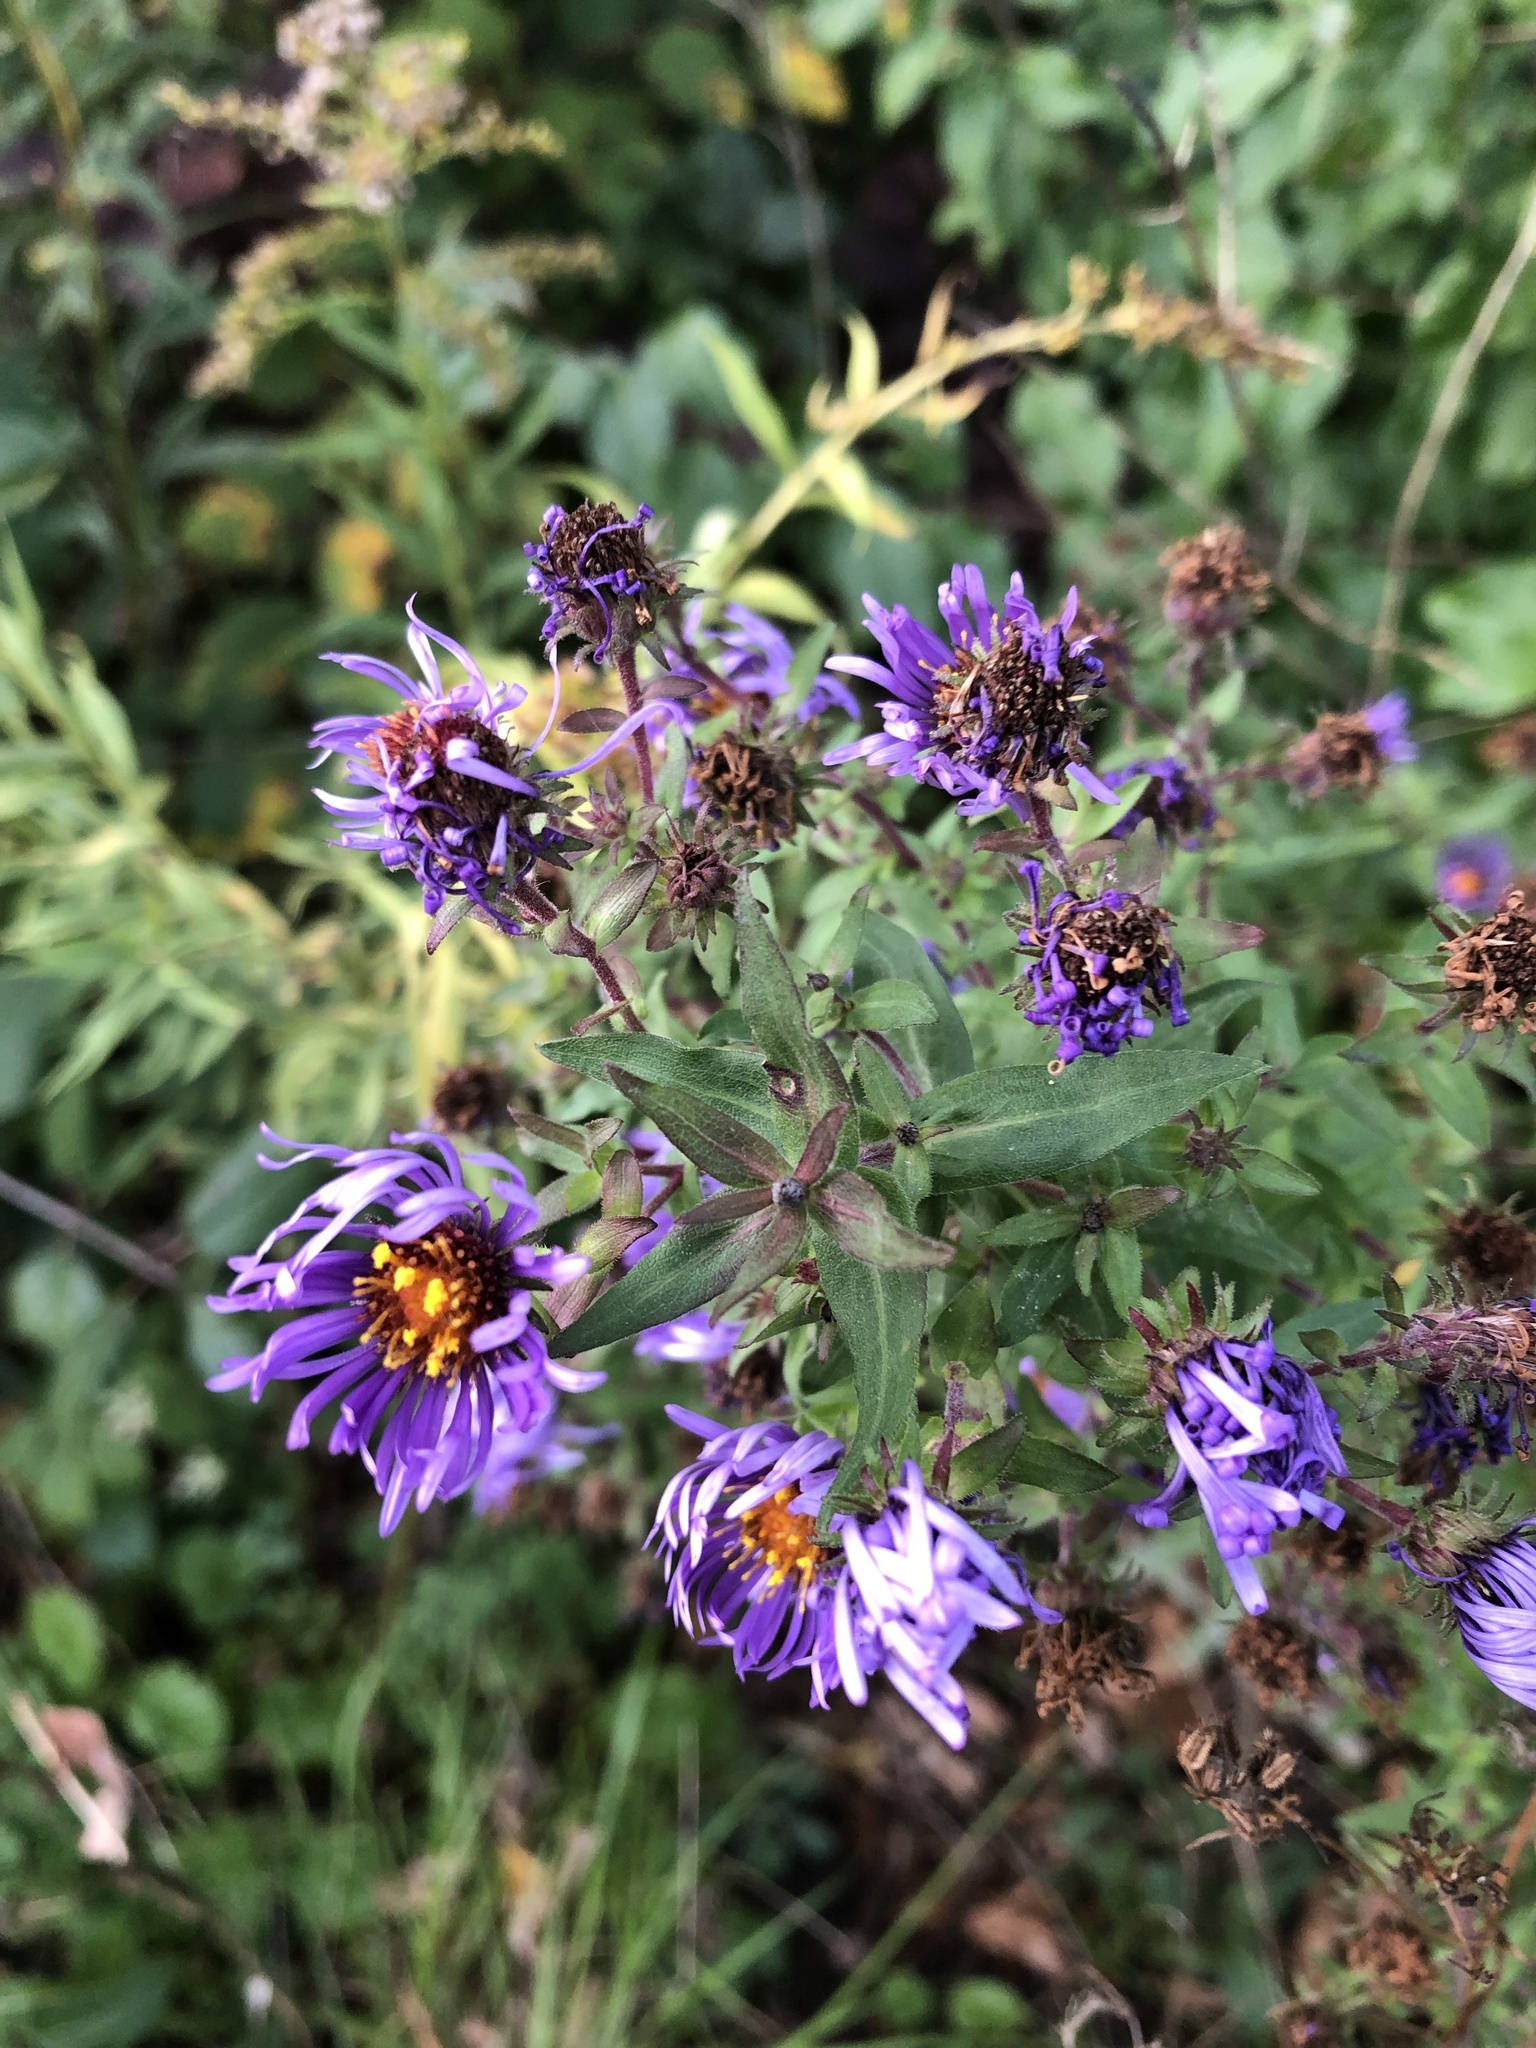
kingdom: Plantae
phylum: Tracheophyta
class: Magnoliopsida
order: Asterales
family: Asteraceae
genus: Symphyotrichum
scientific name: Symphyotrichum novae-angliae
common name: Michaelmas daisy
